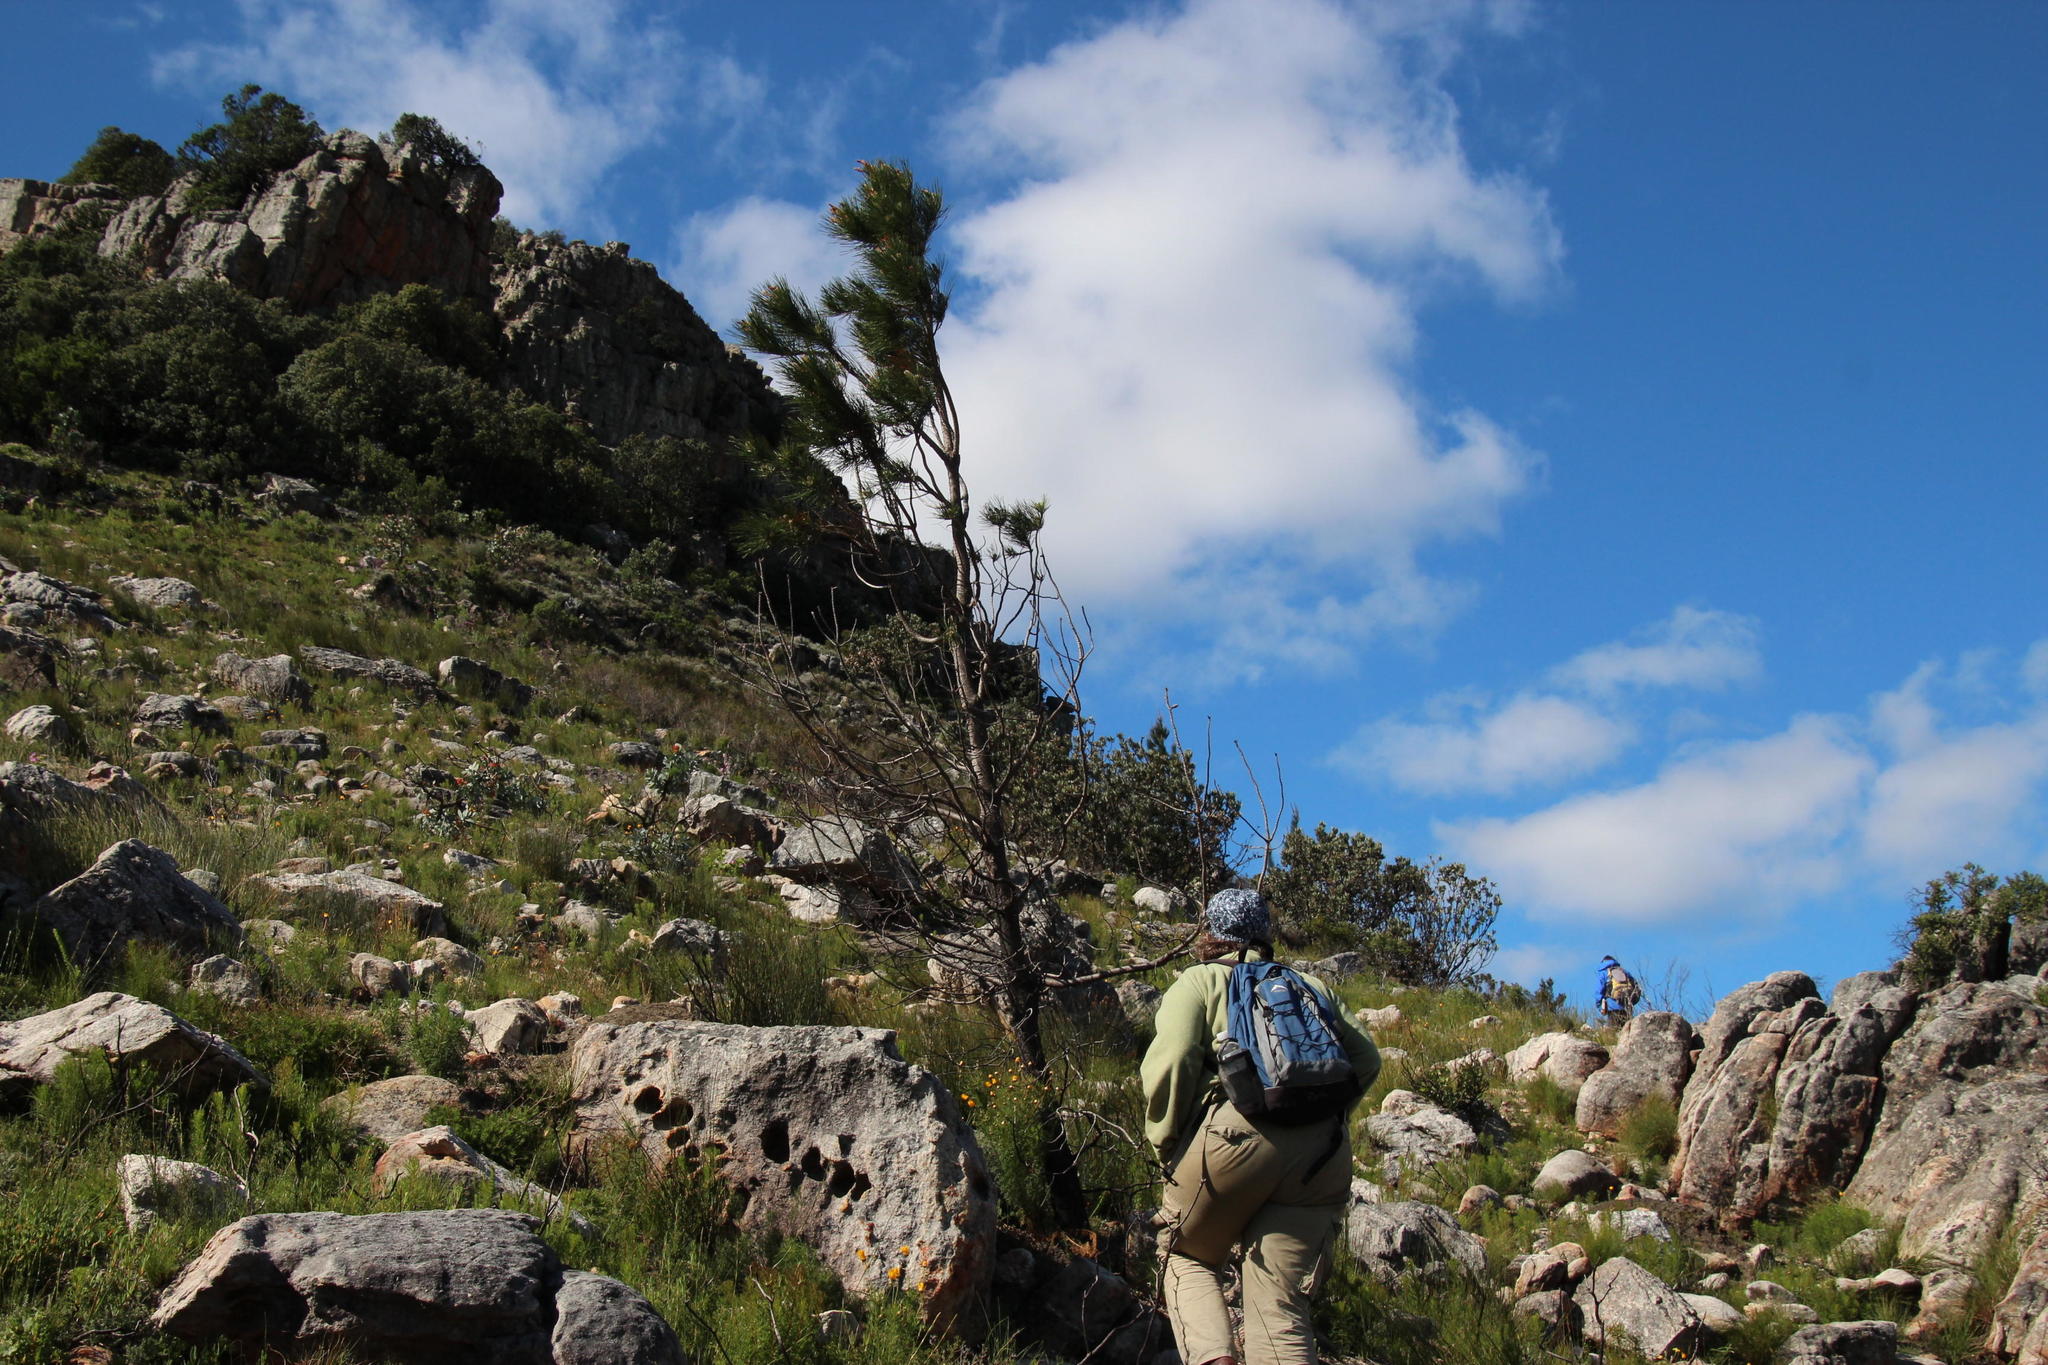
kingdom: Plantae
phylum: Tracheophyta
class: Pinopsida
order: Pinales
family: Pinaceae
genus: Pinus
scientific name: Pinus pinaster
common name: Maritime pine
